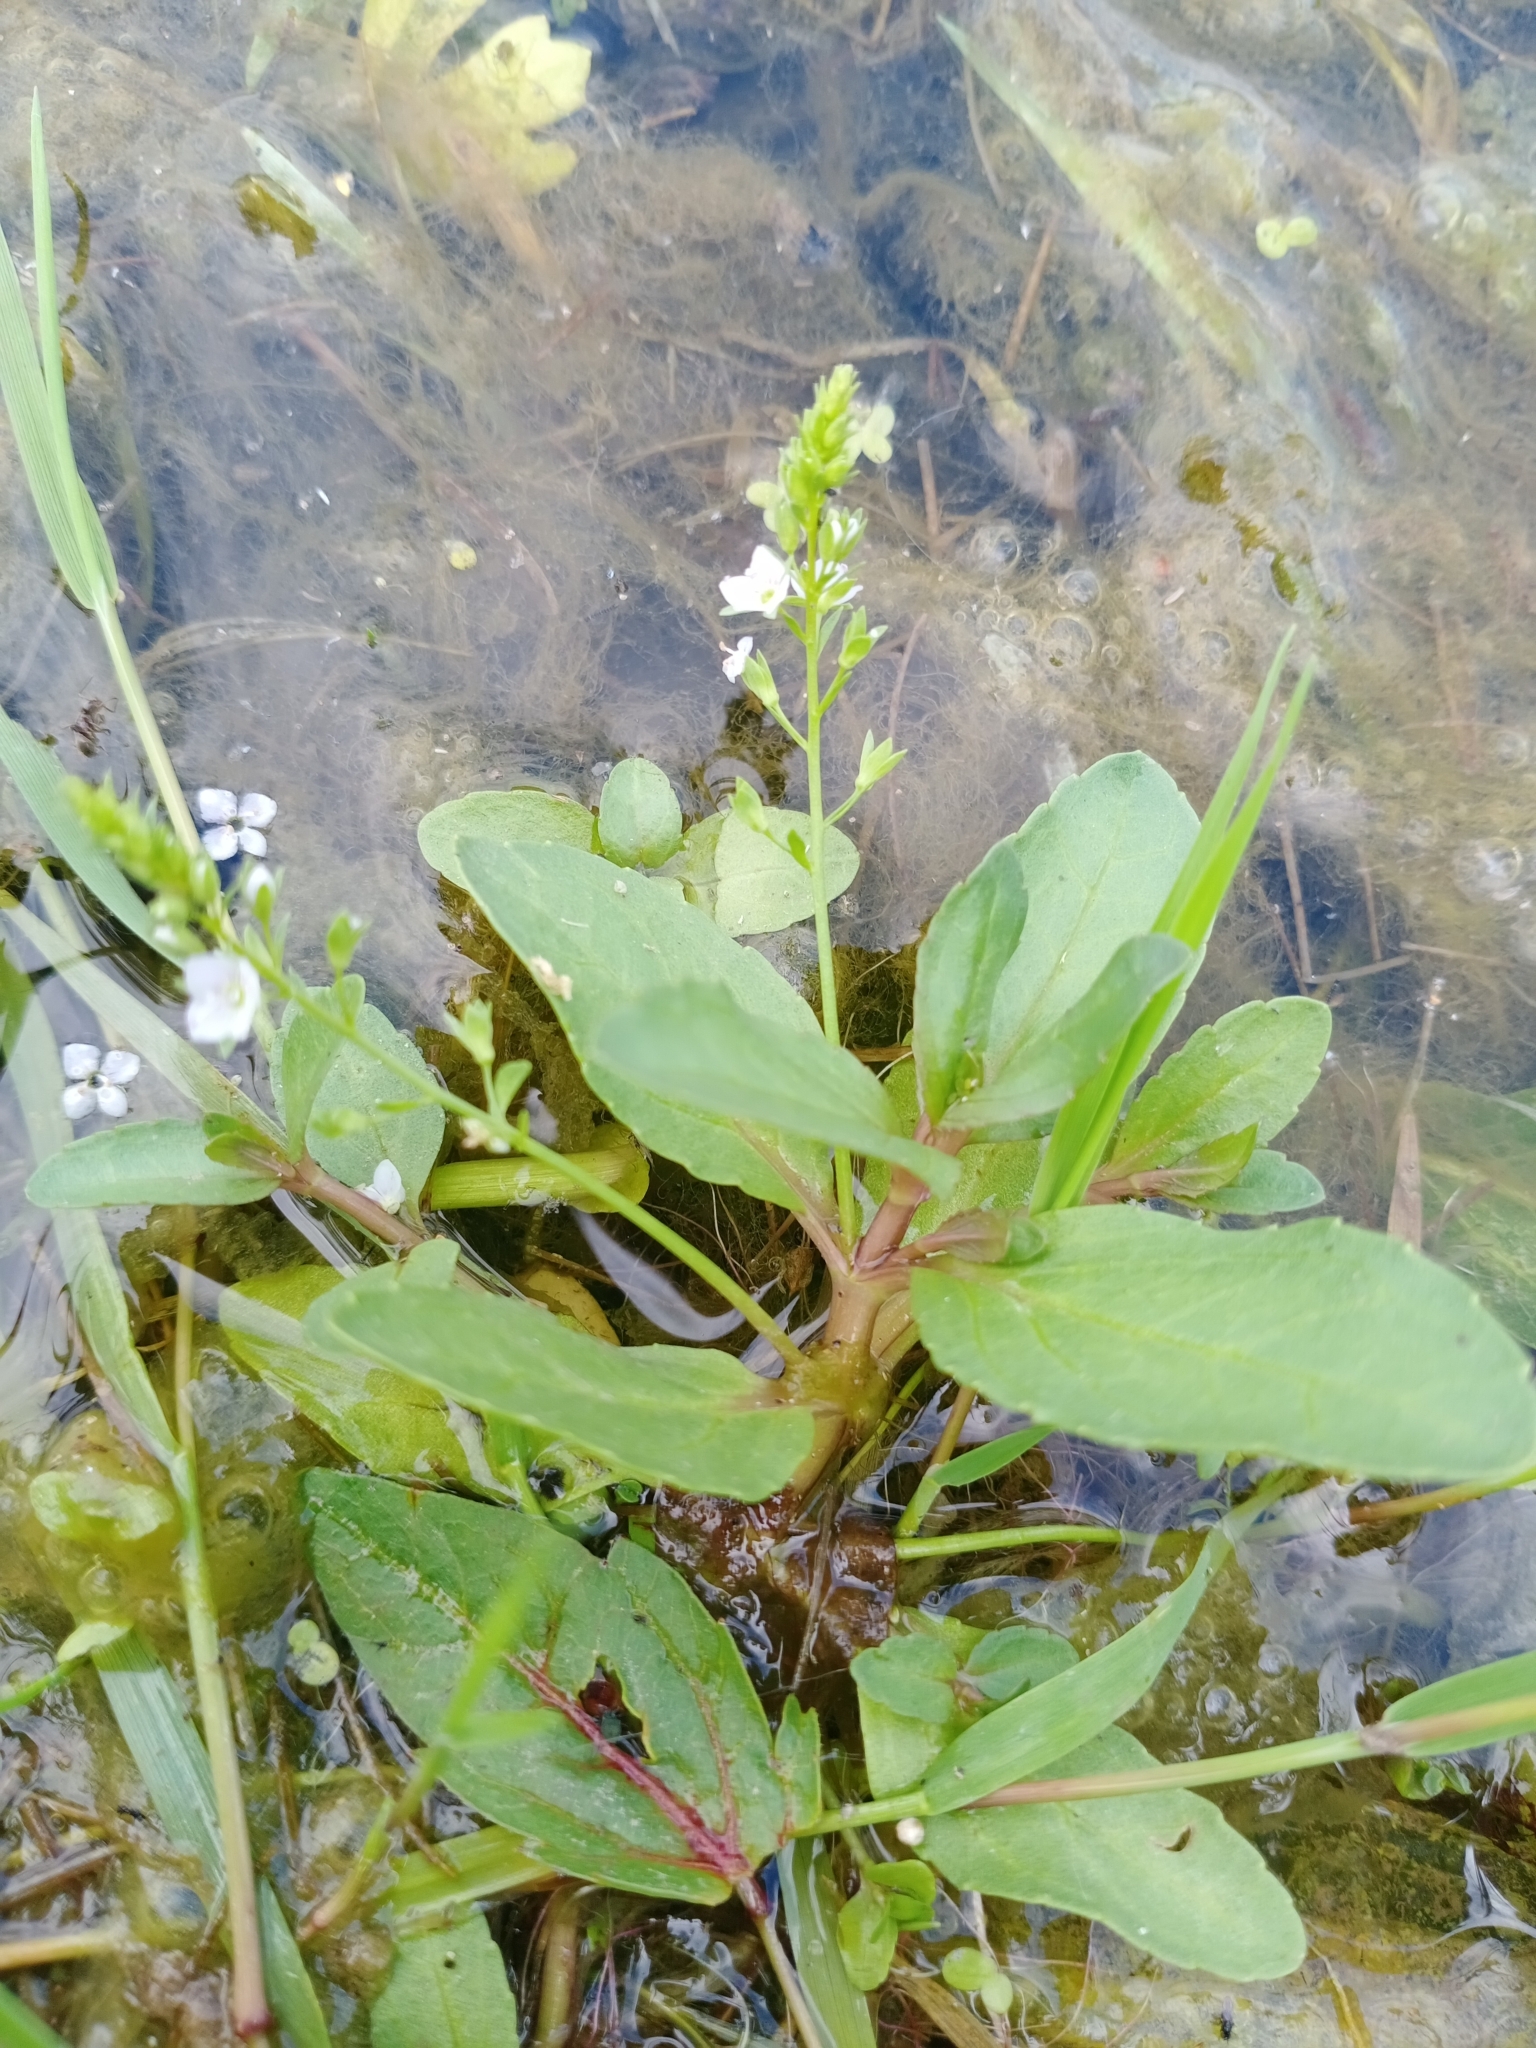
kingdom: Plantae
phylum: Tracheophyta
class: Magnoliopsida
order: Lamiales
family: Plantaginaceae
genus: Veronica
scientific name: Veronica anagallis-aquatica
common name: Water speedwell
